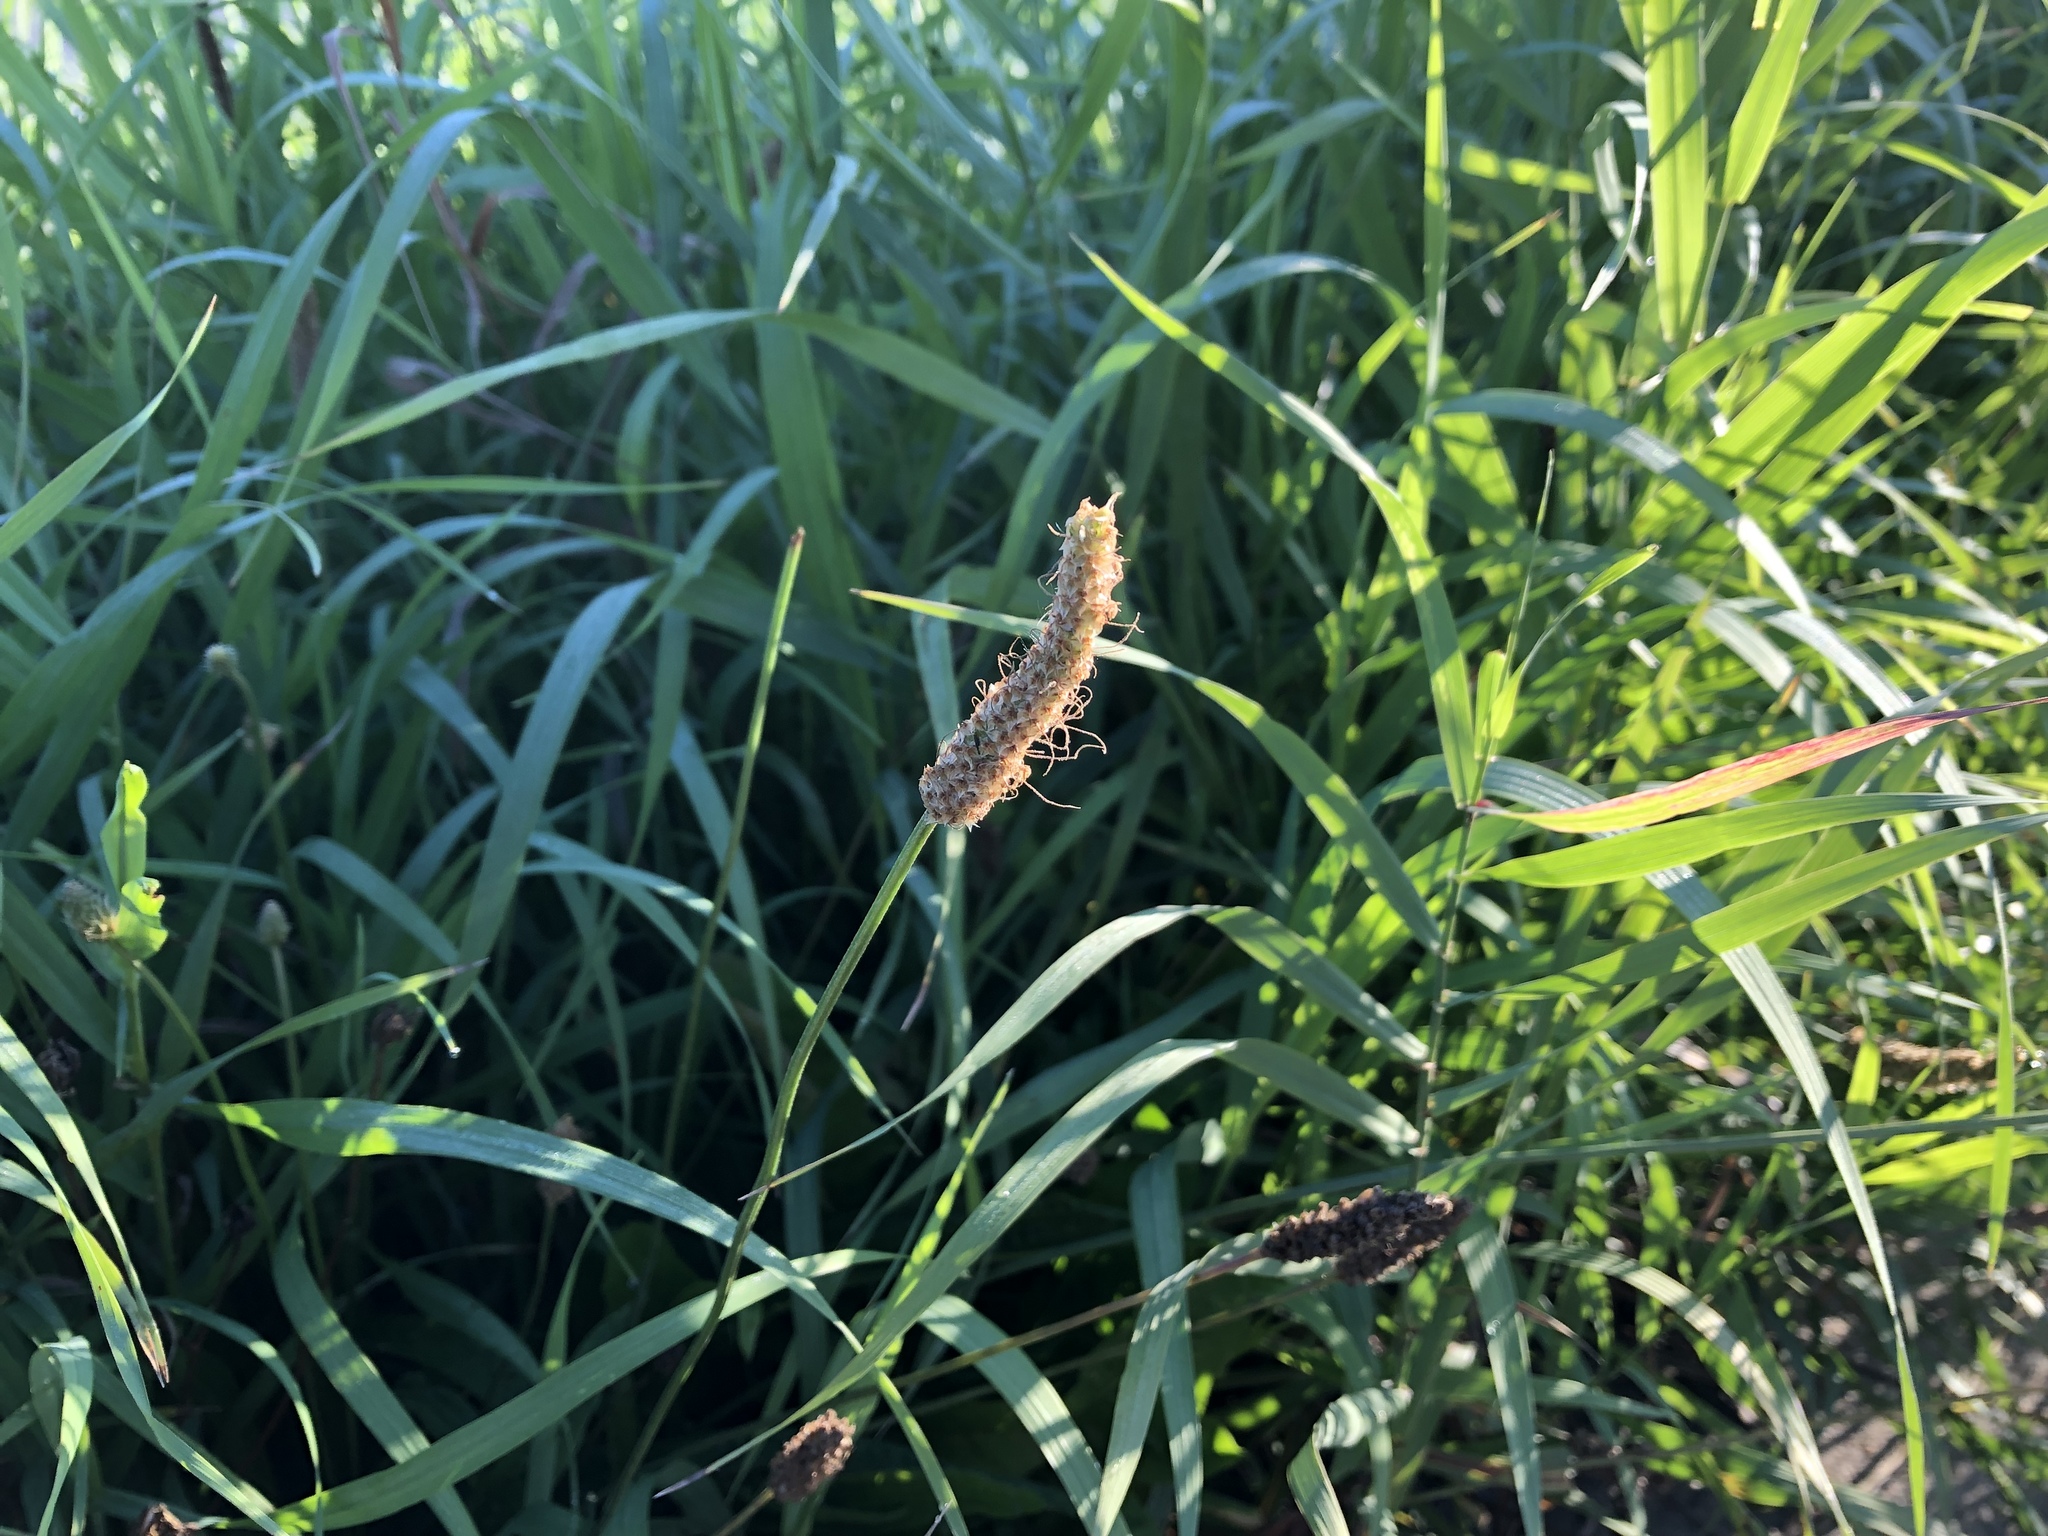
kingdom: Plantae
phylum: Tracheophyta
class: Magnoliopsida
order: Lamiales
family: Plantaginaceae
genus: Plantago
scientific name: Plantago lanceolata
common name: Ribwort plantain
